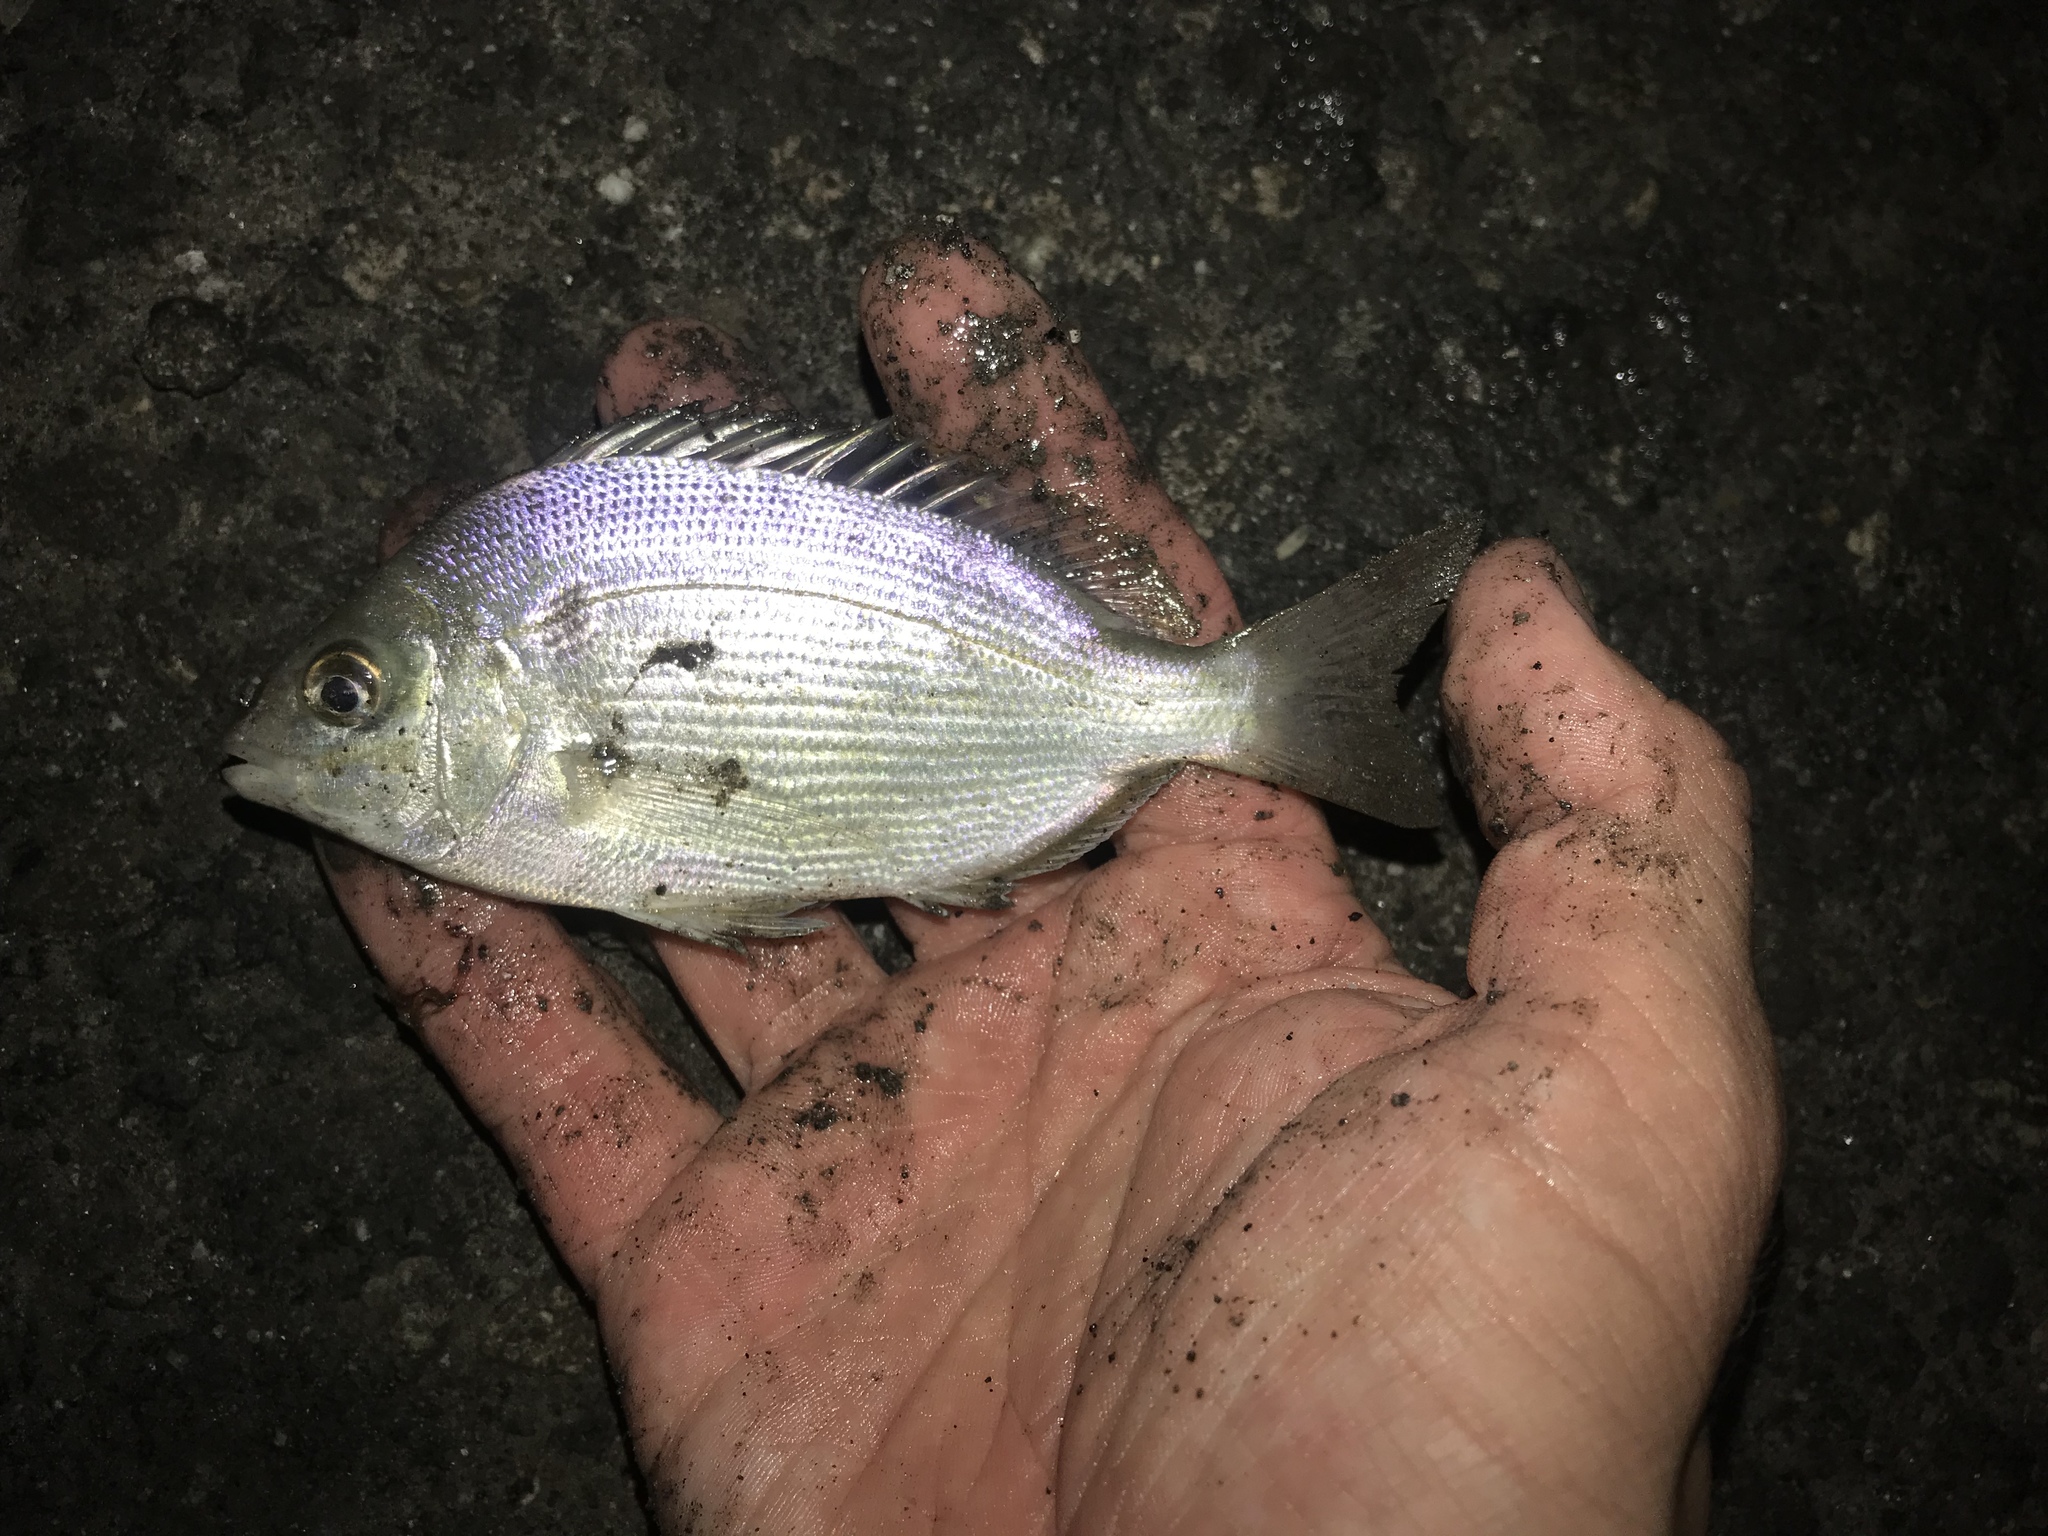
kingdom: Animalia
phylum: Chordata
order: Perciformes
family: Sparidae
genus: Lagodon
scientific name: Lagodon rhomboides
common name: Pinfish
